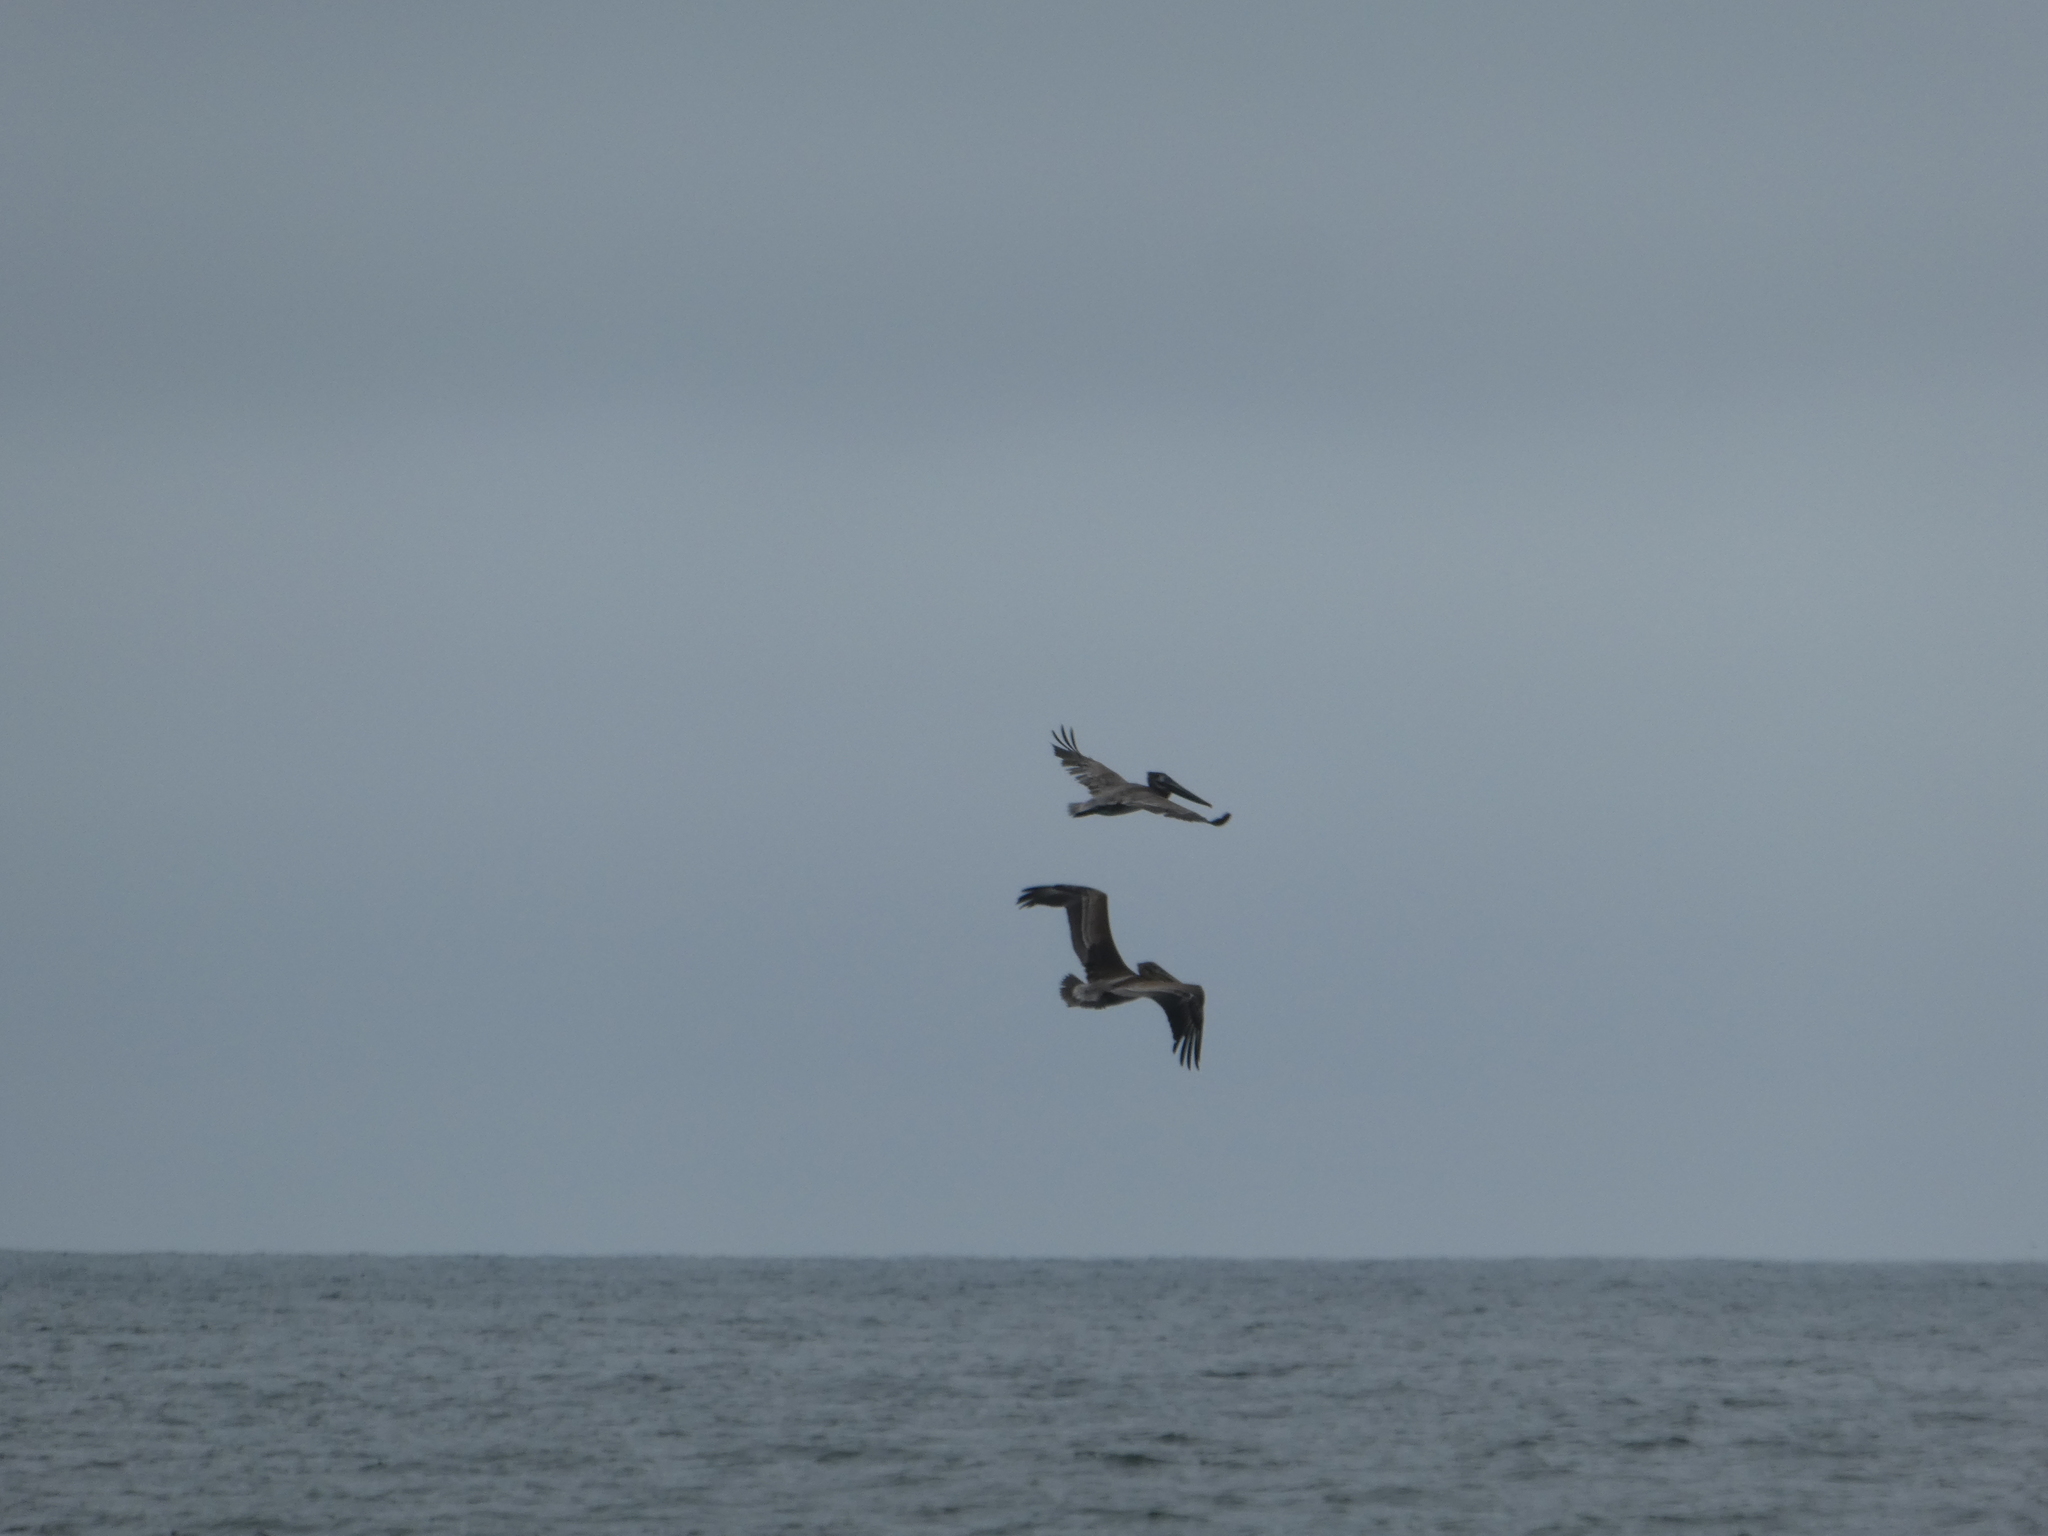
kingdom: Animalia
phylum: Chordata
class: Aves
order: Pelecaniformes
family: Pelecanidae
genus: Pelecanus
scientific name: Pelecanus occidentalis
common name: Brown pelican
